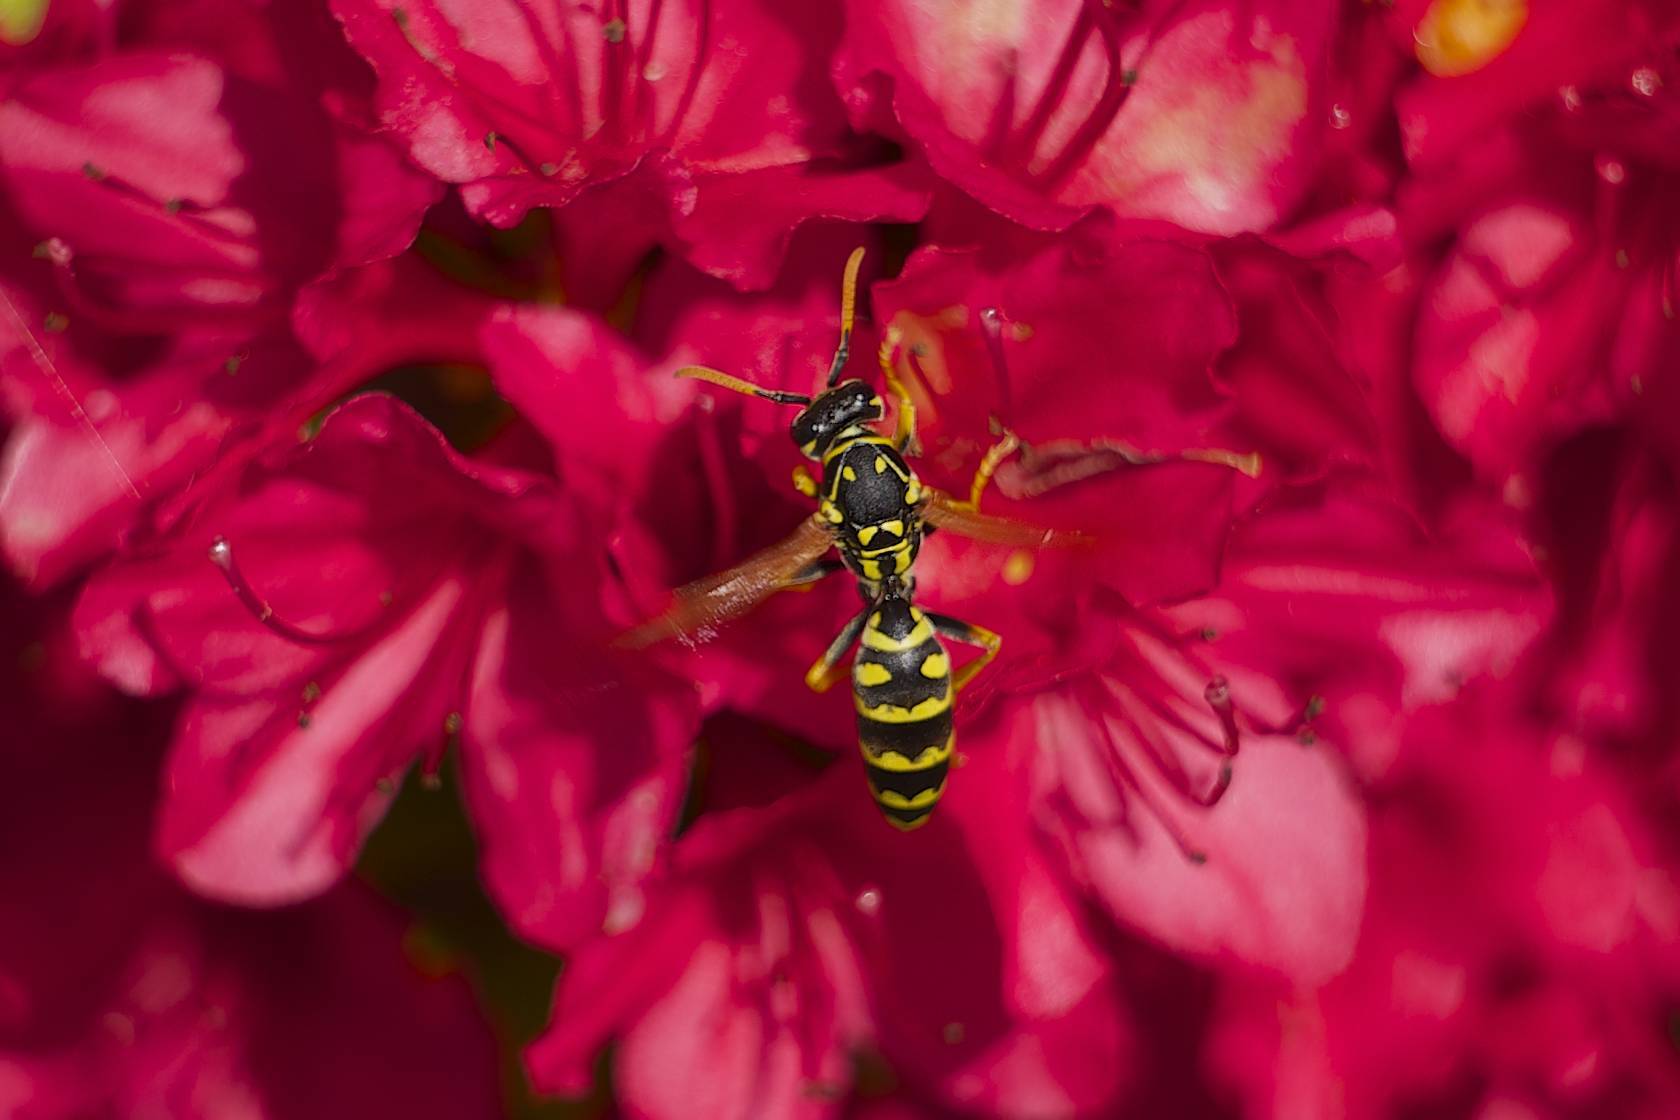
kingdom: Animalia
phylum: Arthropoda
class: Insecta
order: Hymenoptera
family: Eumenidae
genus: Polistes
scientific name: Polistes dominula
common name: Paper wasp
